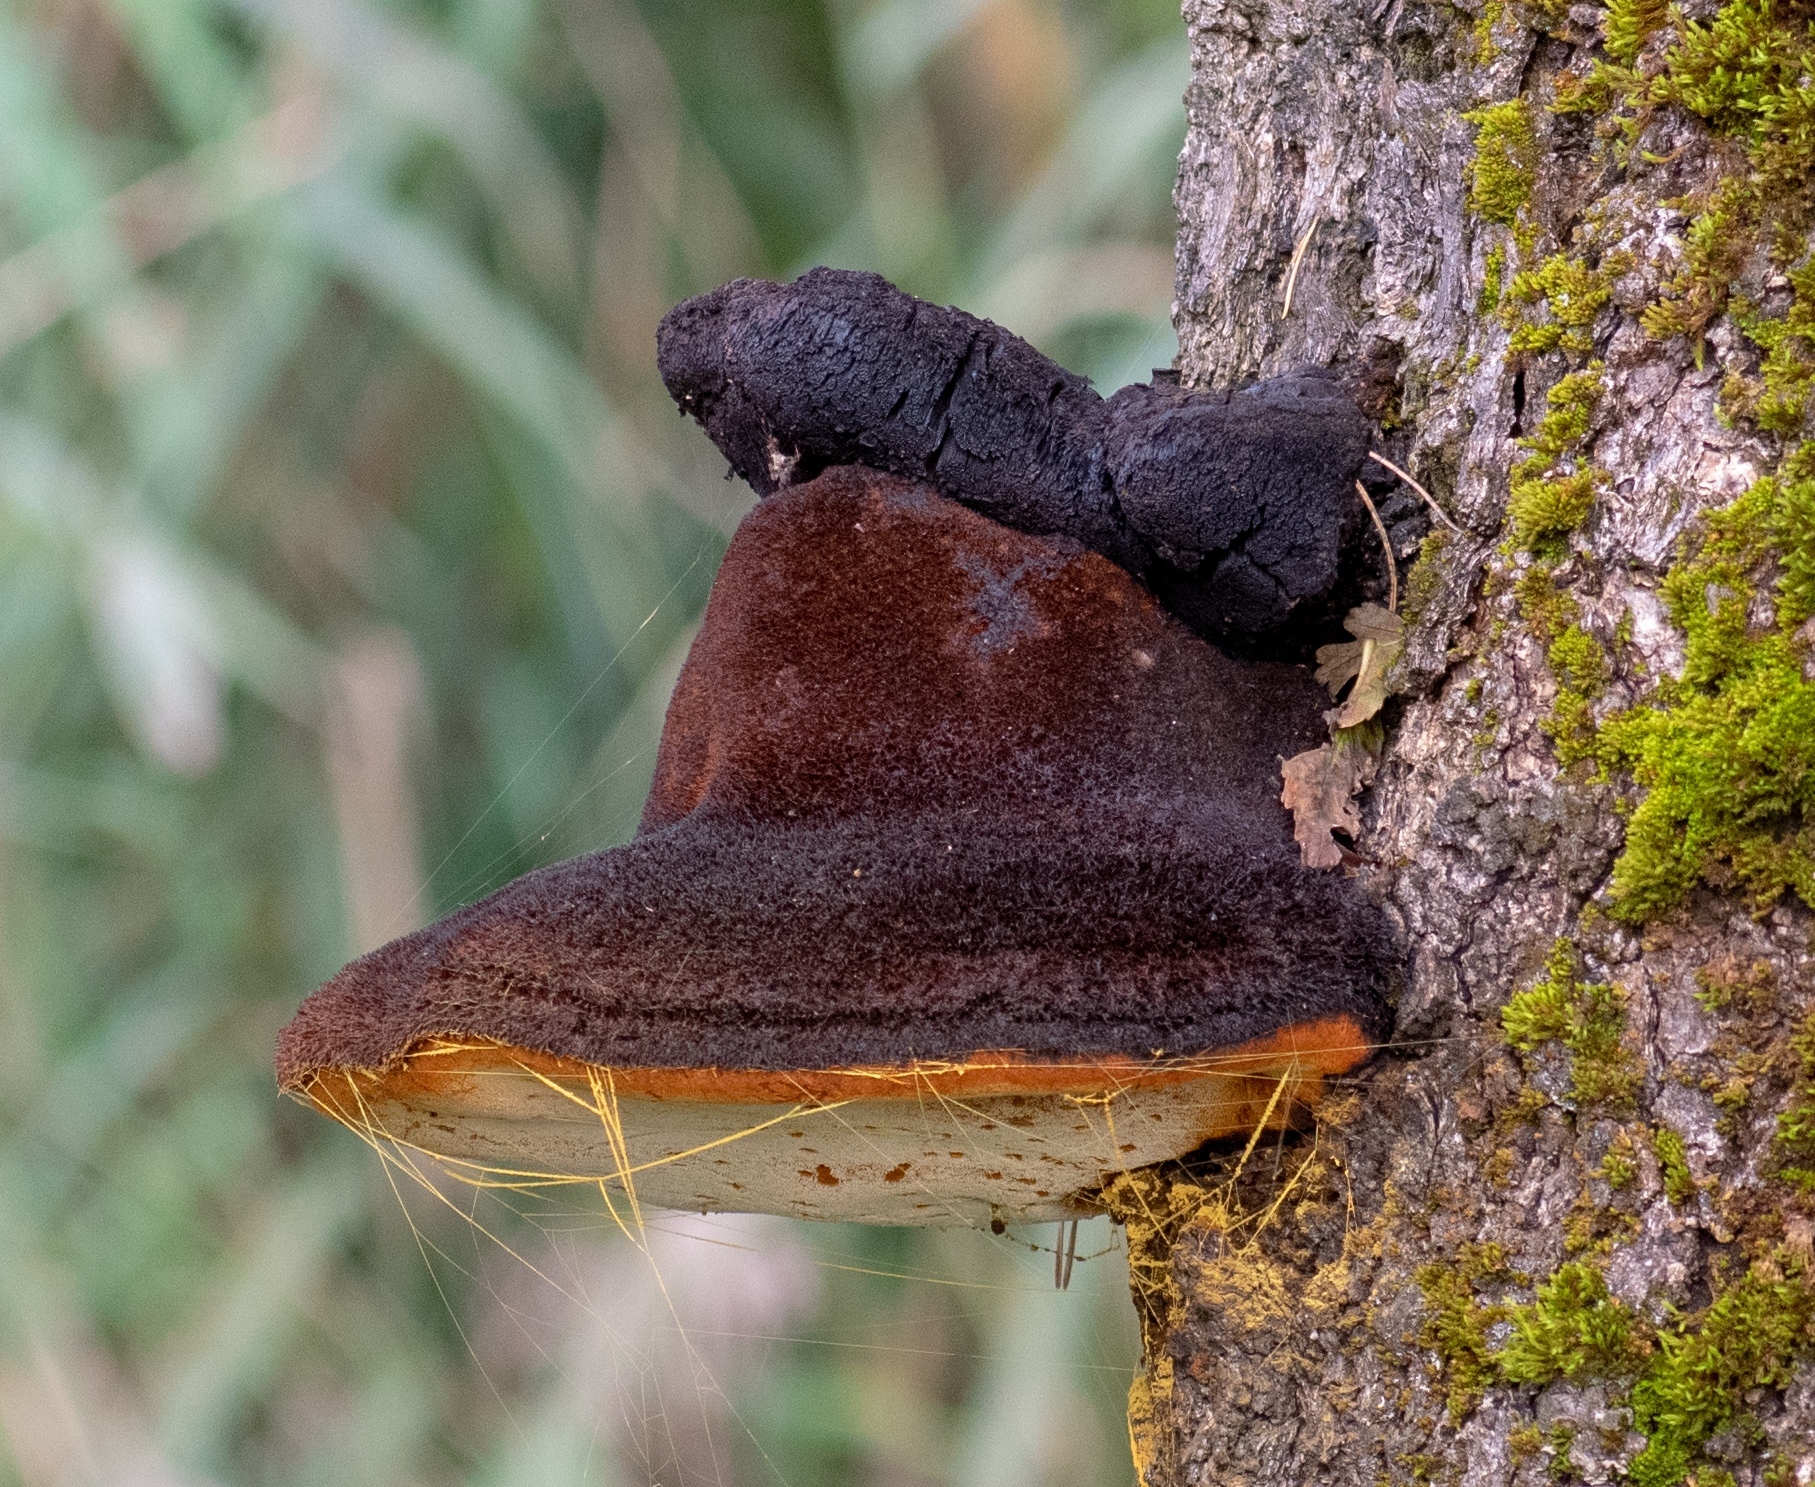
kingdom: Fungi
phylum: Basidiomycota
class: Agaricomycetes
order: Hymenochaetales
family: Hymenochaetaceae
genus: Inonotus
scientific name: Inonotus hispidus
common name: Shaggy bracket
